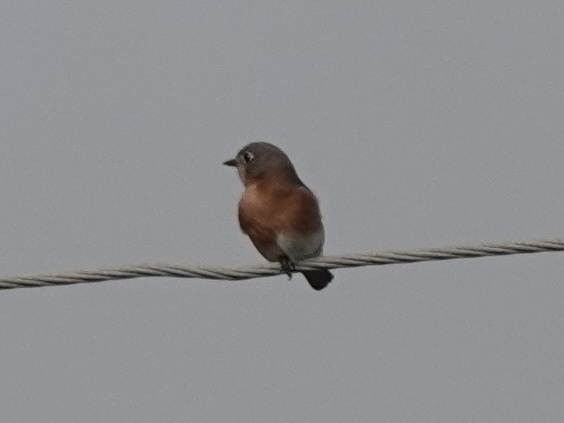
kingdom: Animalia
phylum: Chordata
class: Aves
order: Passeriformes
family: Turdidae
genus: Sialia
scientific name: Sialia sialis
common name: Eastern bluebird
